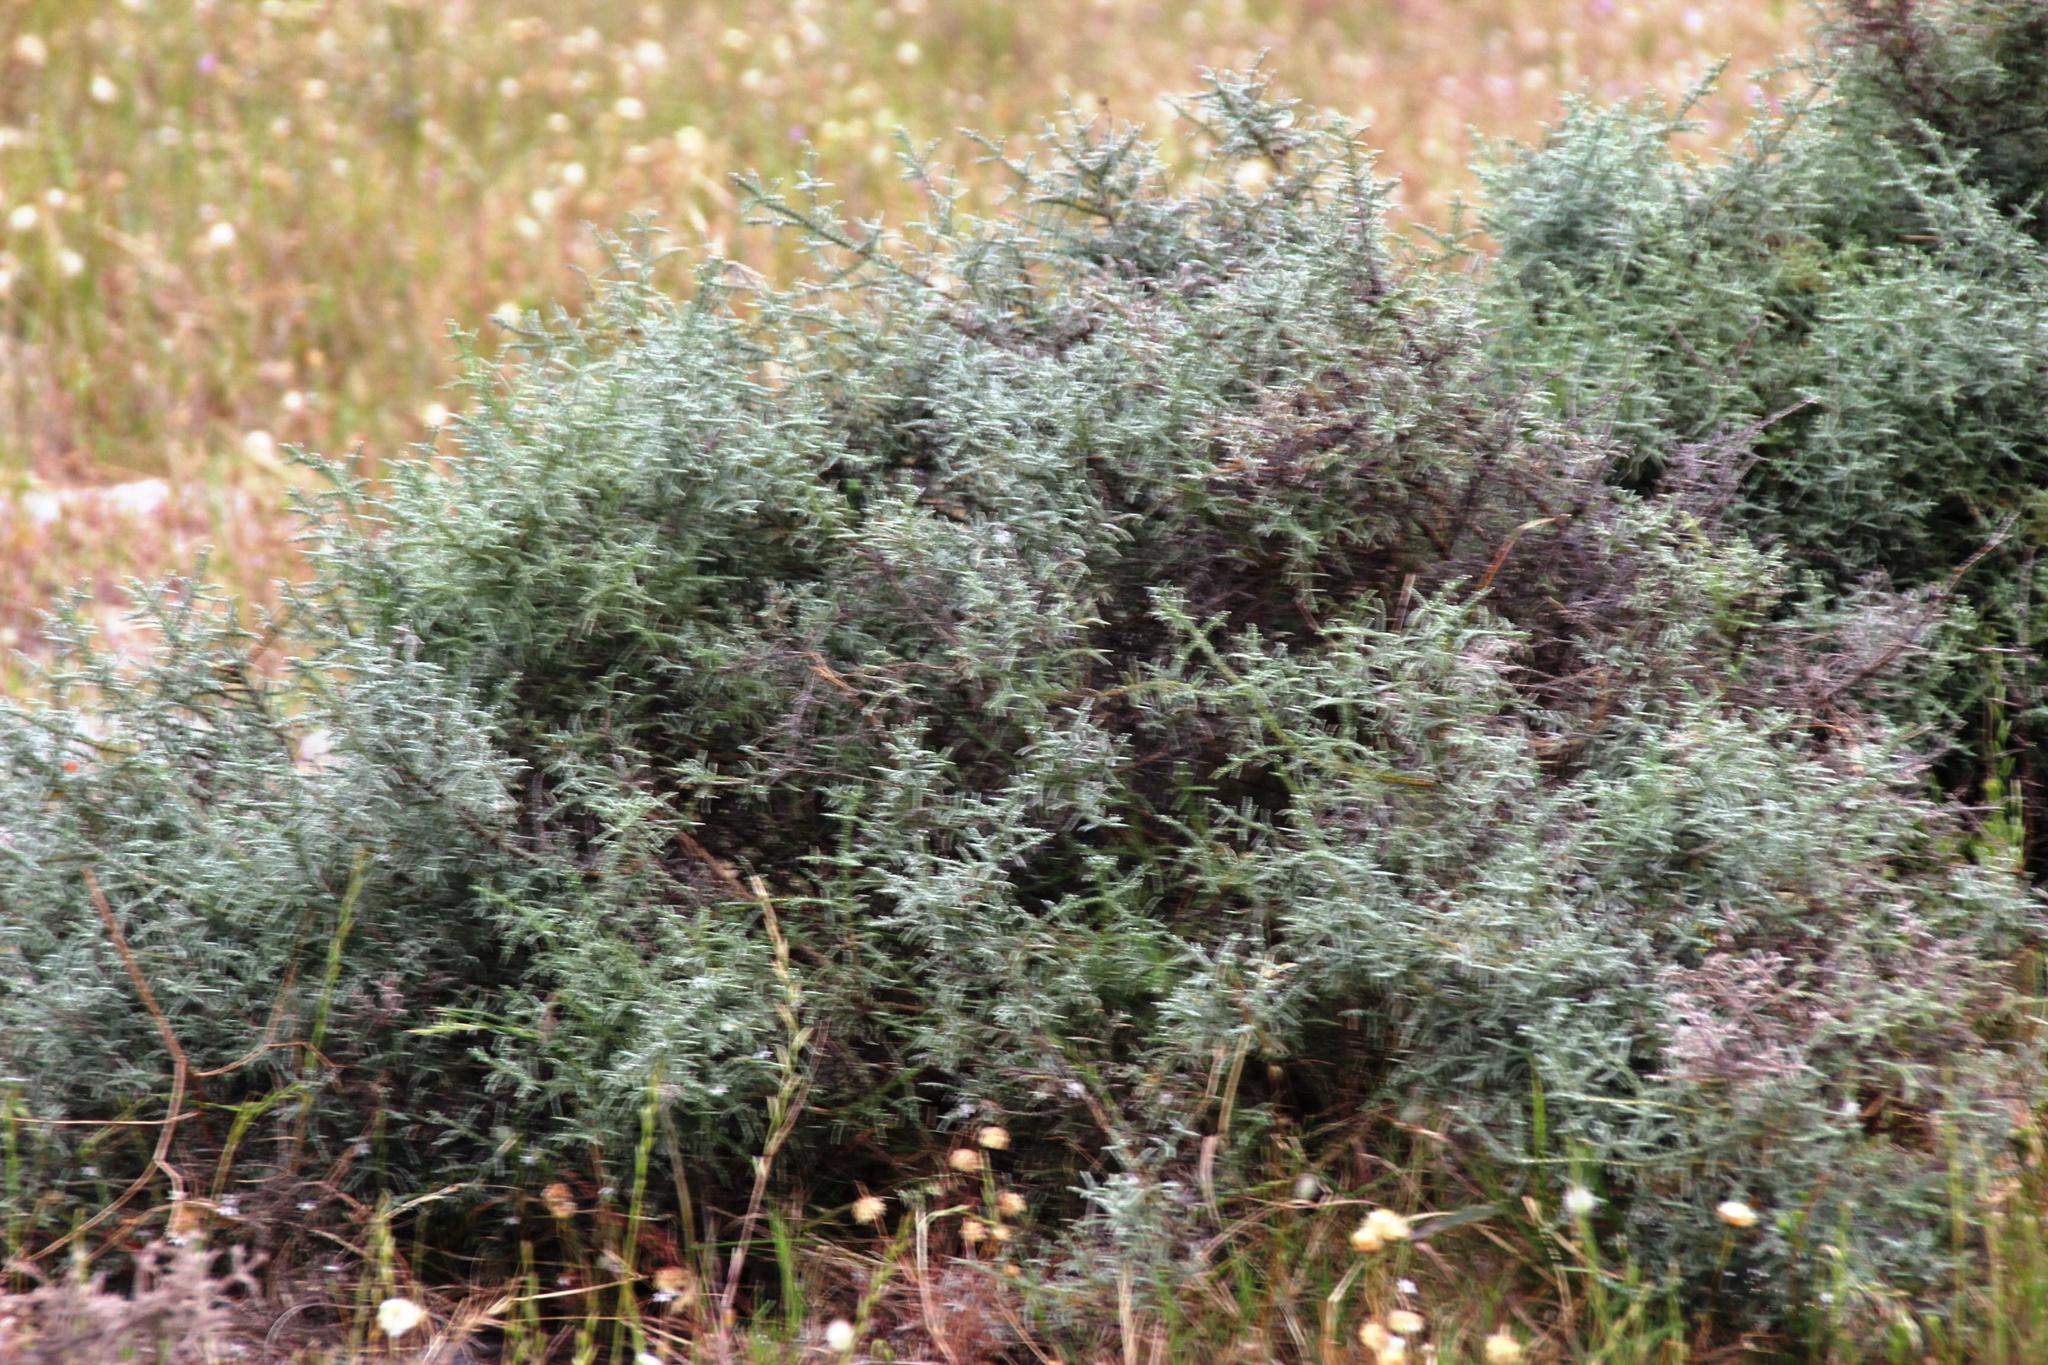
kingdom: Plantae
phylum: Tracheophyta
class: Magnoliopsida
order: Asterales
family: Asteraceae
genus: Seriphium
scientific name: Seriphium plumosum
